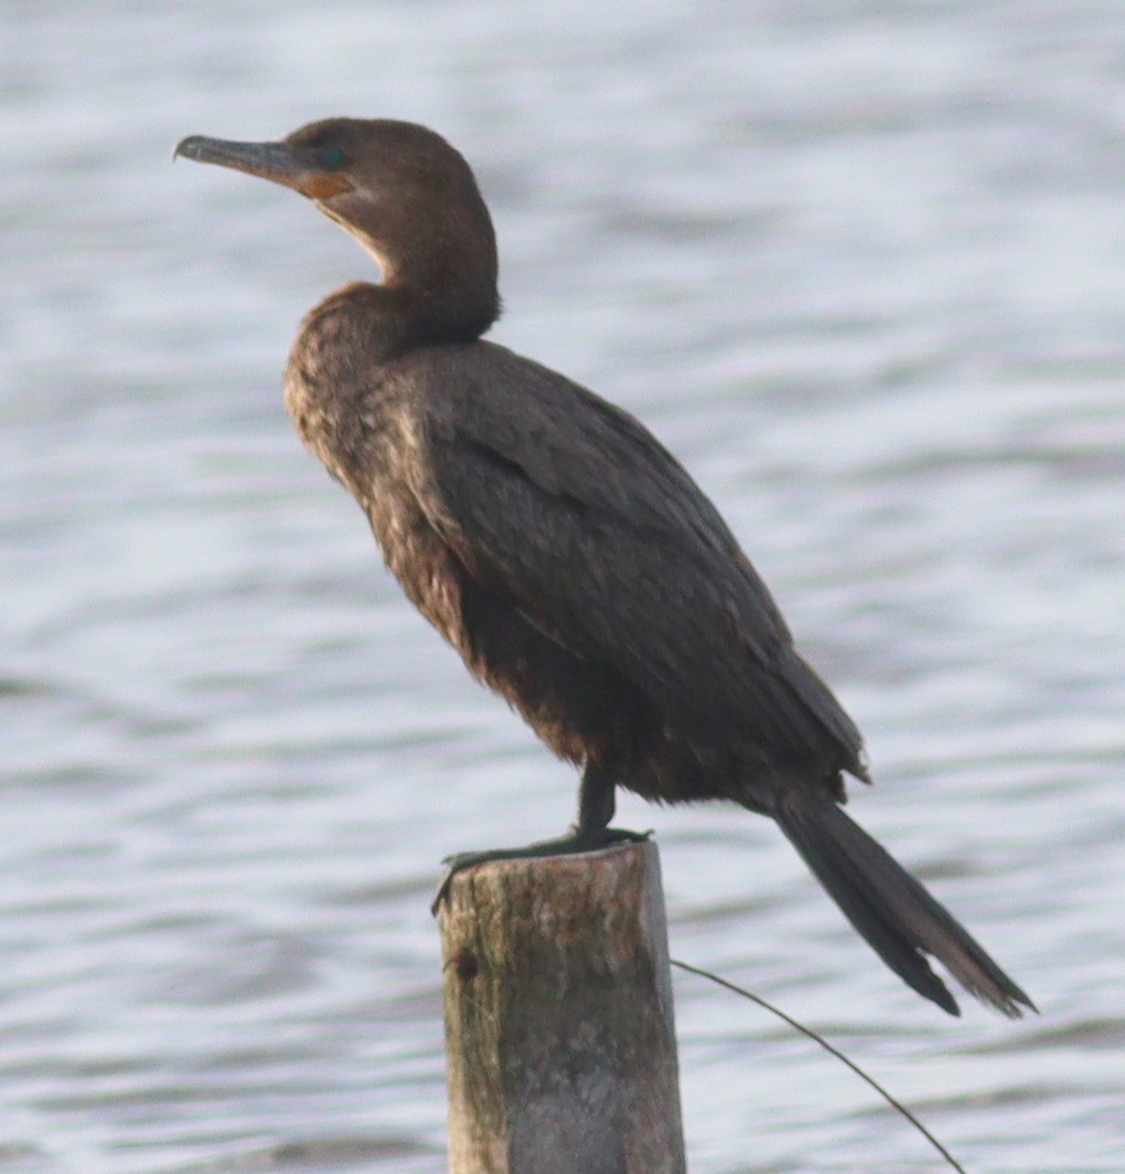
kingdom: Animalia
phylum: Chordata
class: Aves
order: Suliformes
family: Phalacrocoracidae
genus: Phalacrocorax
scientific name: Phalacrocorax brasilianus
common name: Neotropic cormorant
